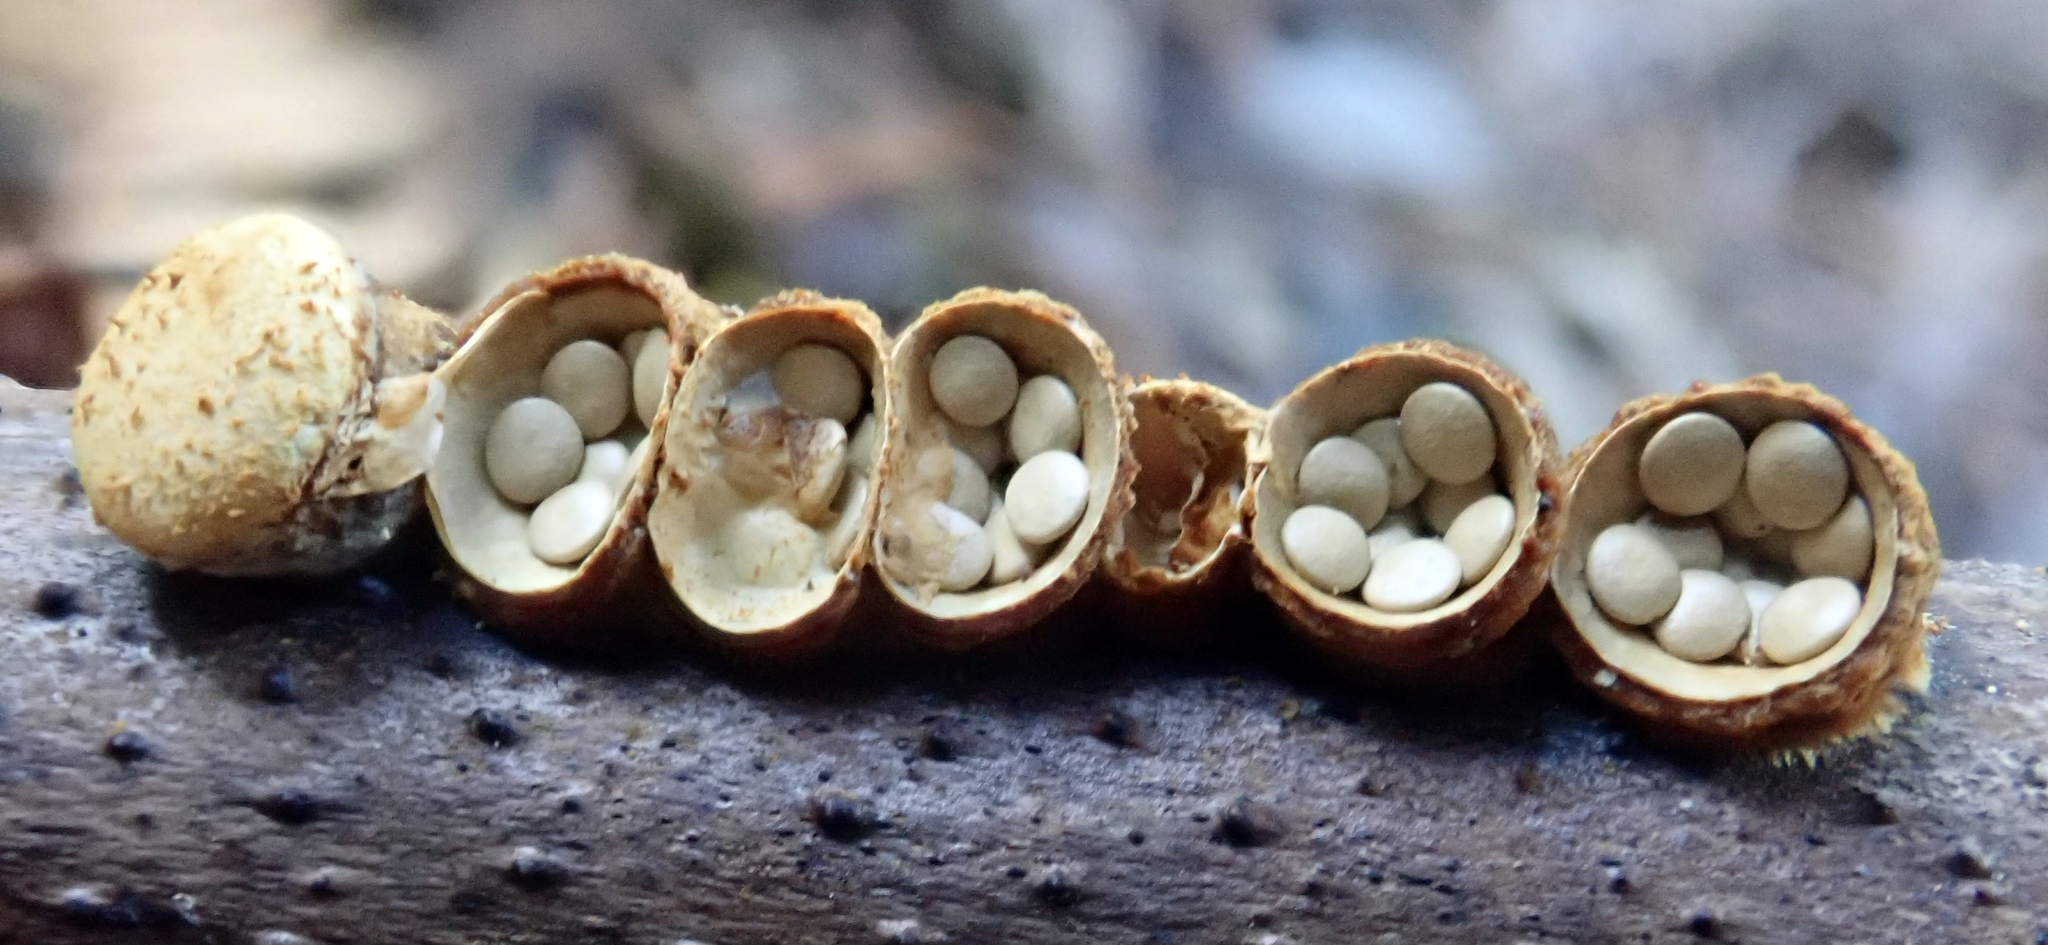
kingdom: Fungi
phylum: Basidiomycota
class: Agaricomycetes
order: Agaricales
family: Nidulariaceae
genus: Crucibulum
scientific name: Crucibulum simile
